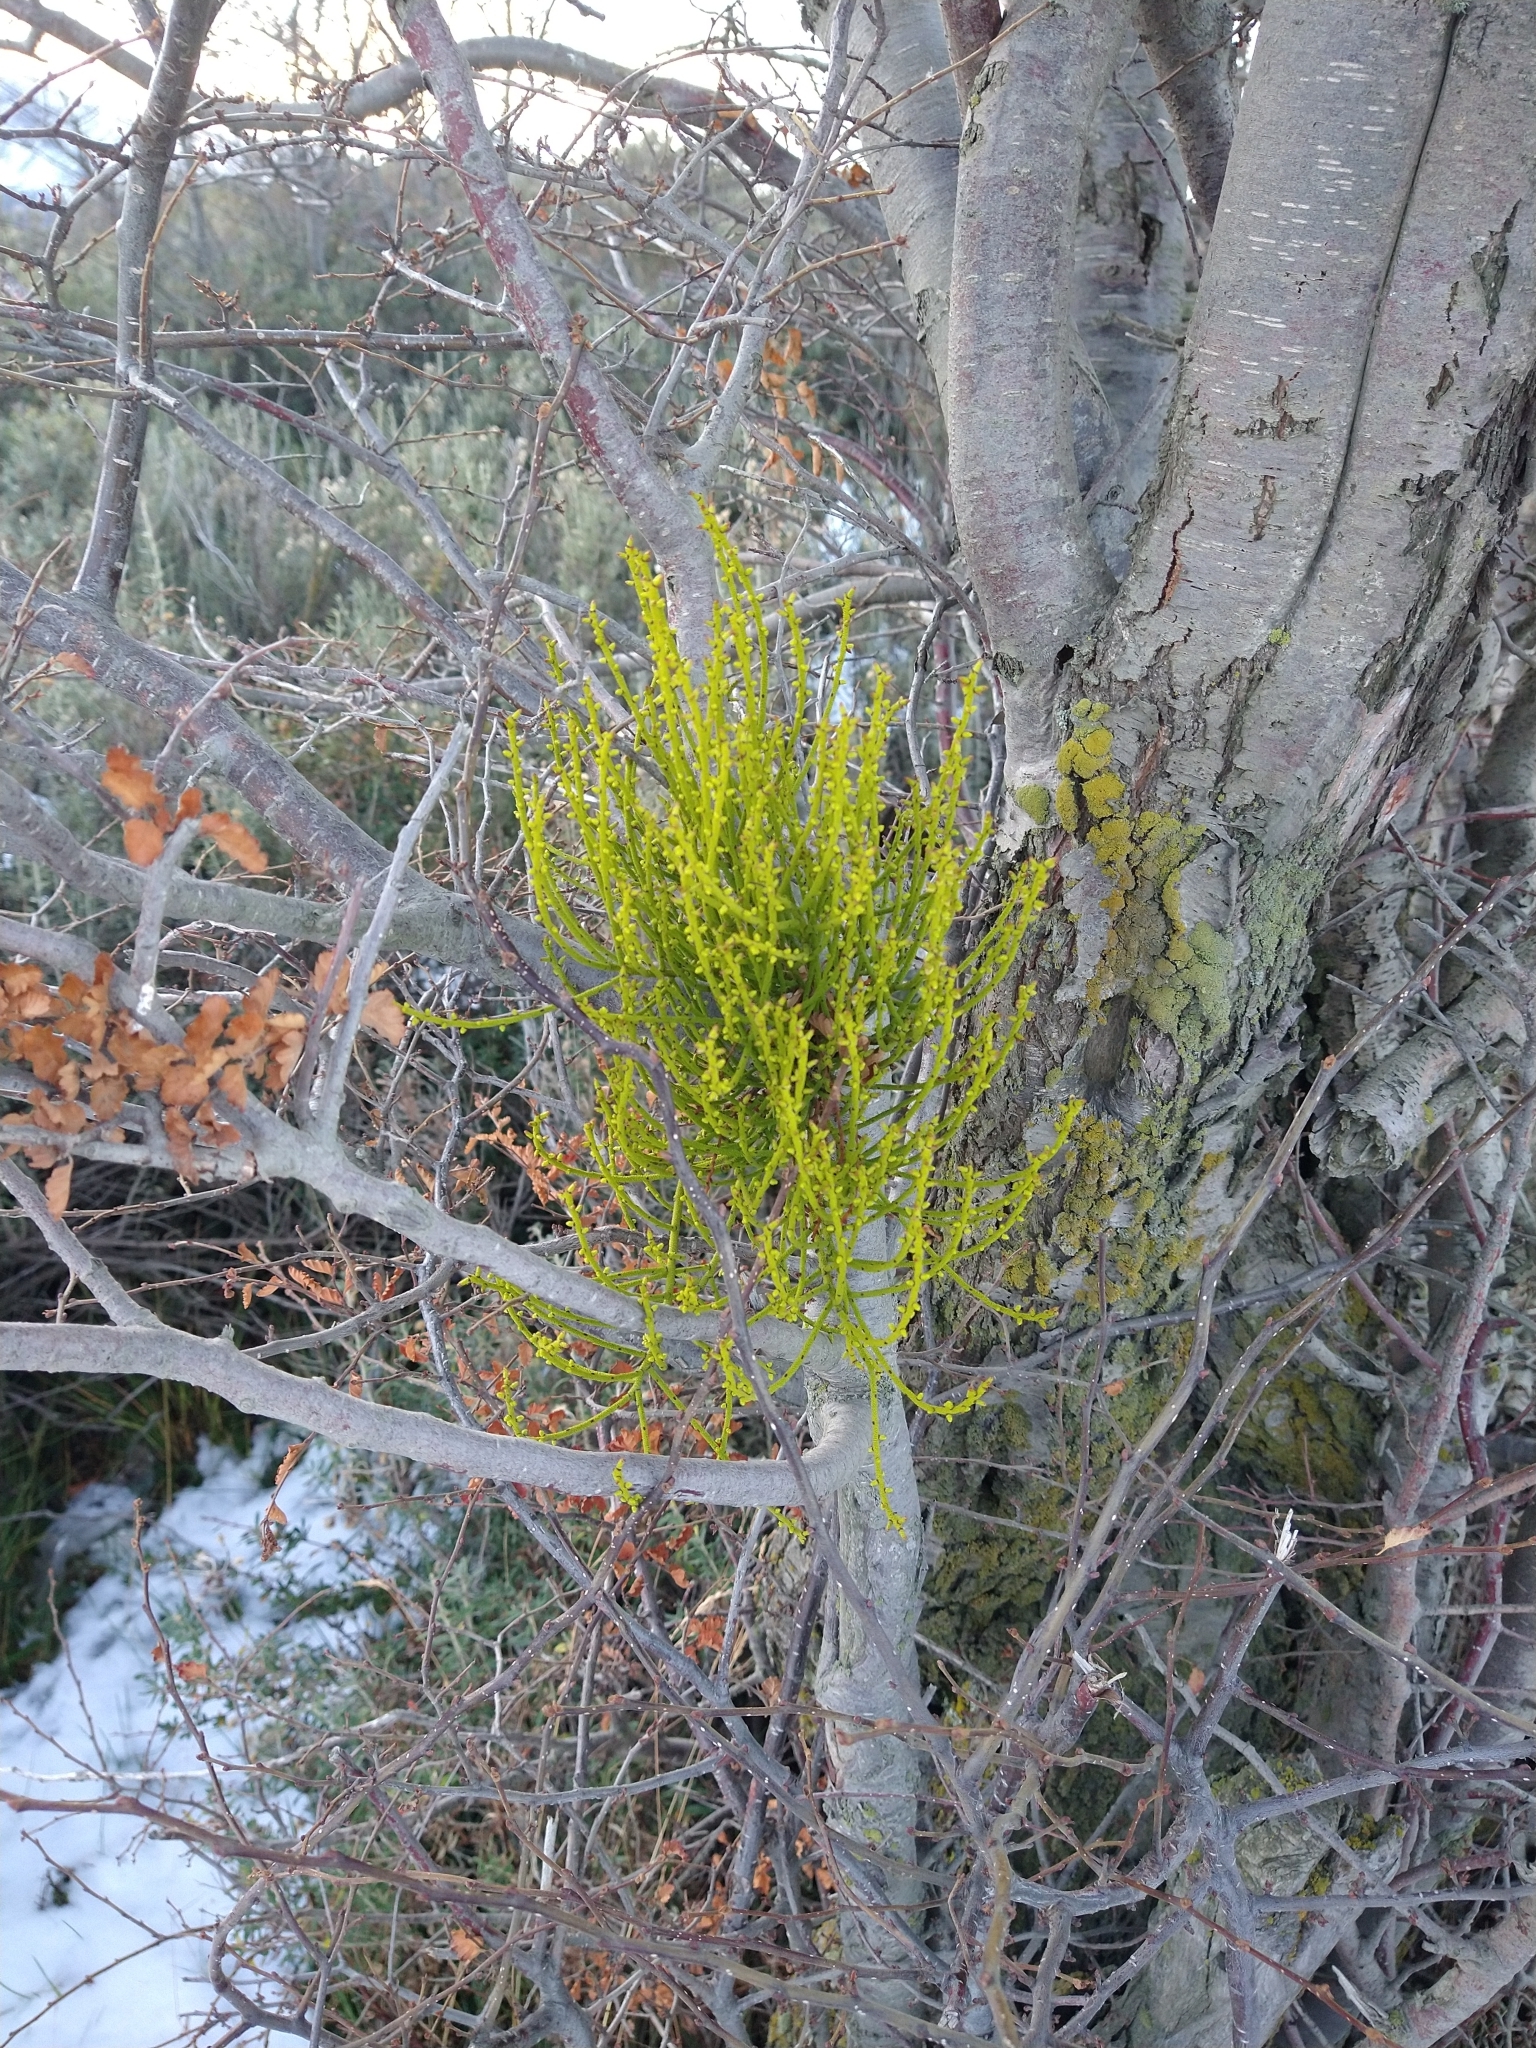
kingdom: Plantae
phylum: Tracheophyta
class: Magnoliopsida
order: Santalales
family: Misodendraceae
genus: Misodendrum
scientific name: Misodendrum punctulatum
